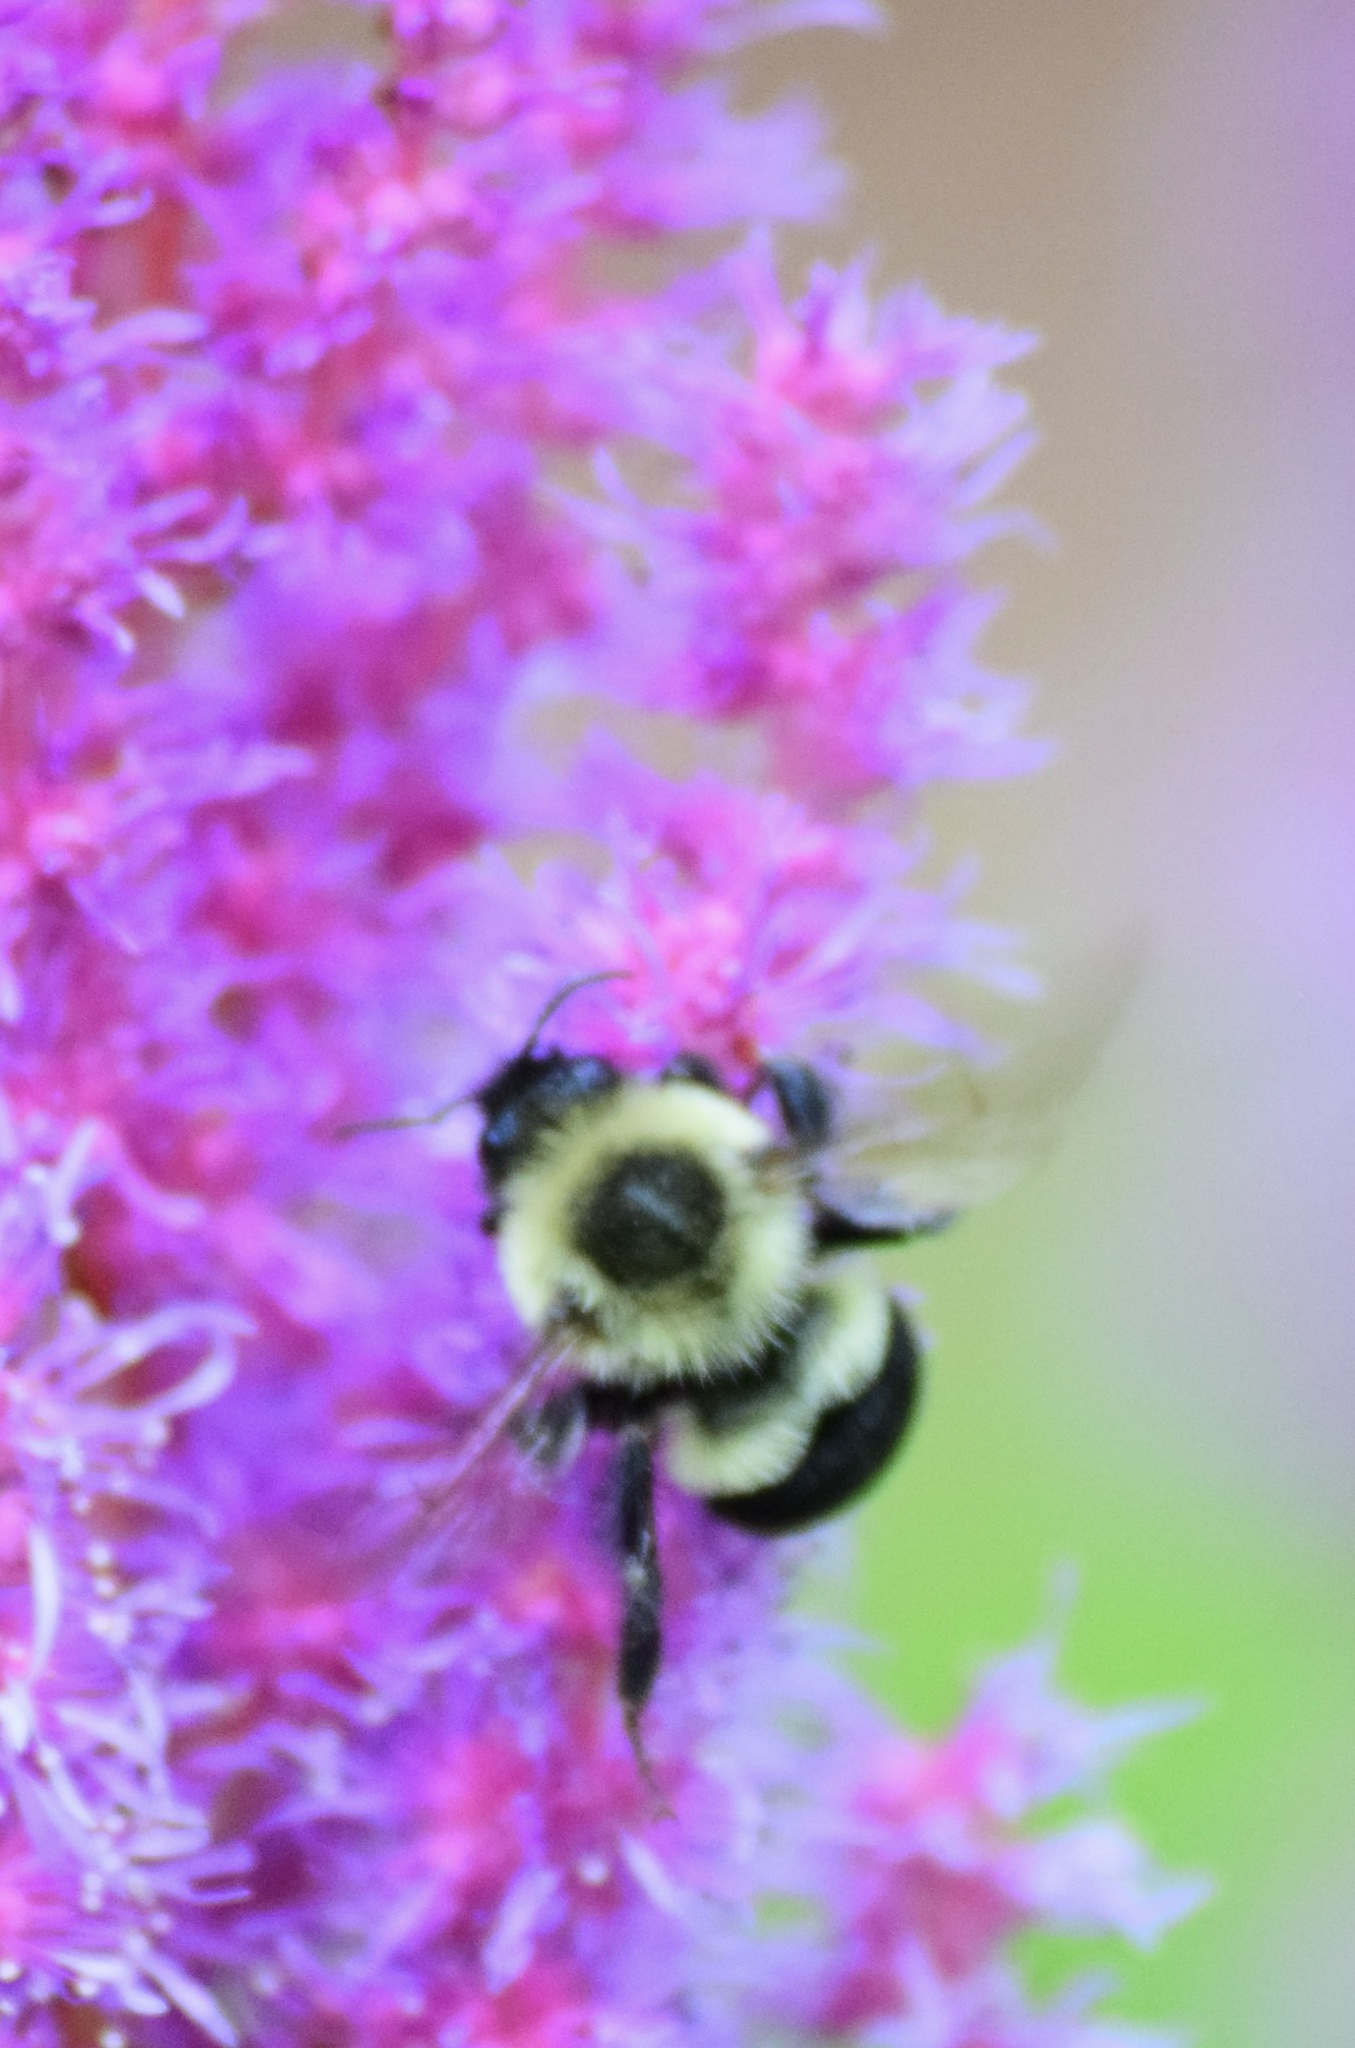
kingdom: Animalia
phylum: Arthropoda
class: Insecta
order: Hymenoptera
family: Apidae
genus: Bombus
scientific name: Bombus impatiens
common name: Common eastern bumble bee
